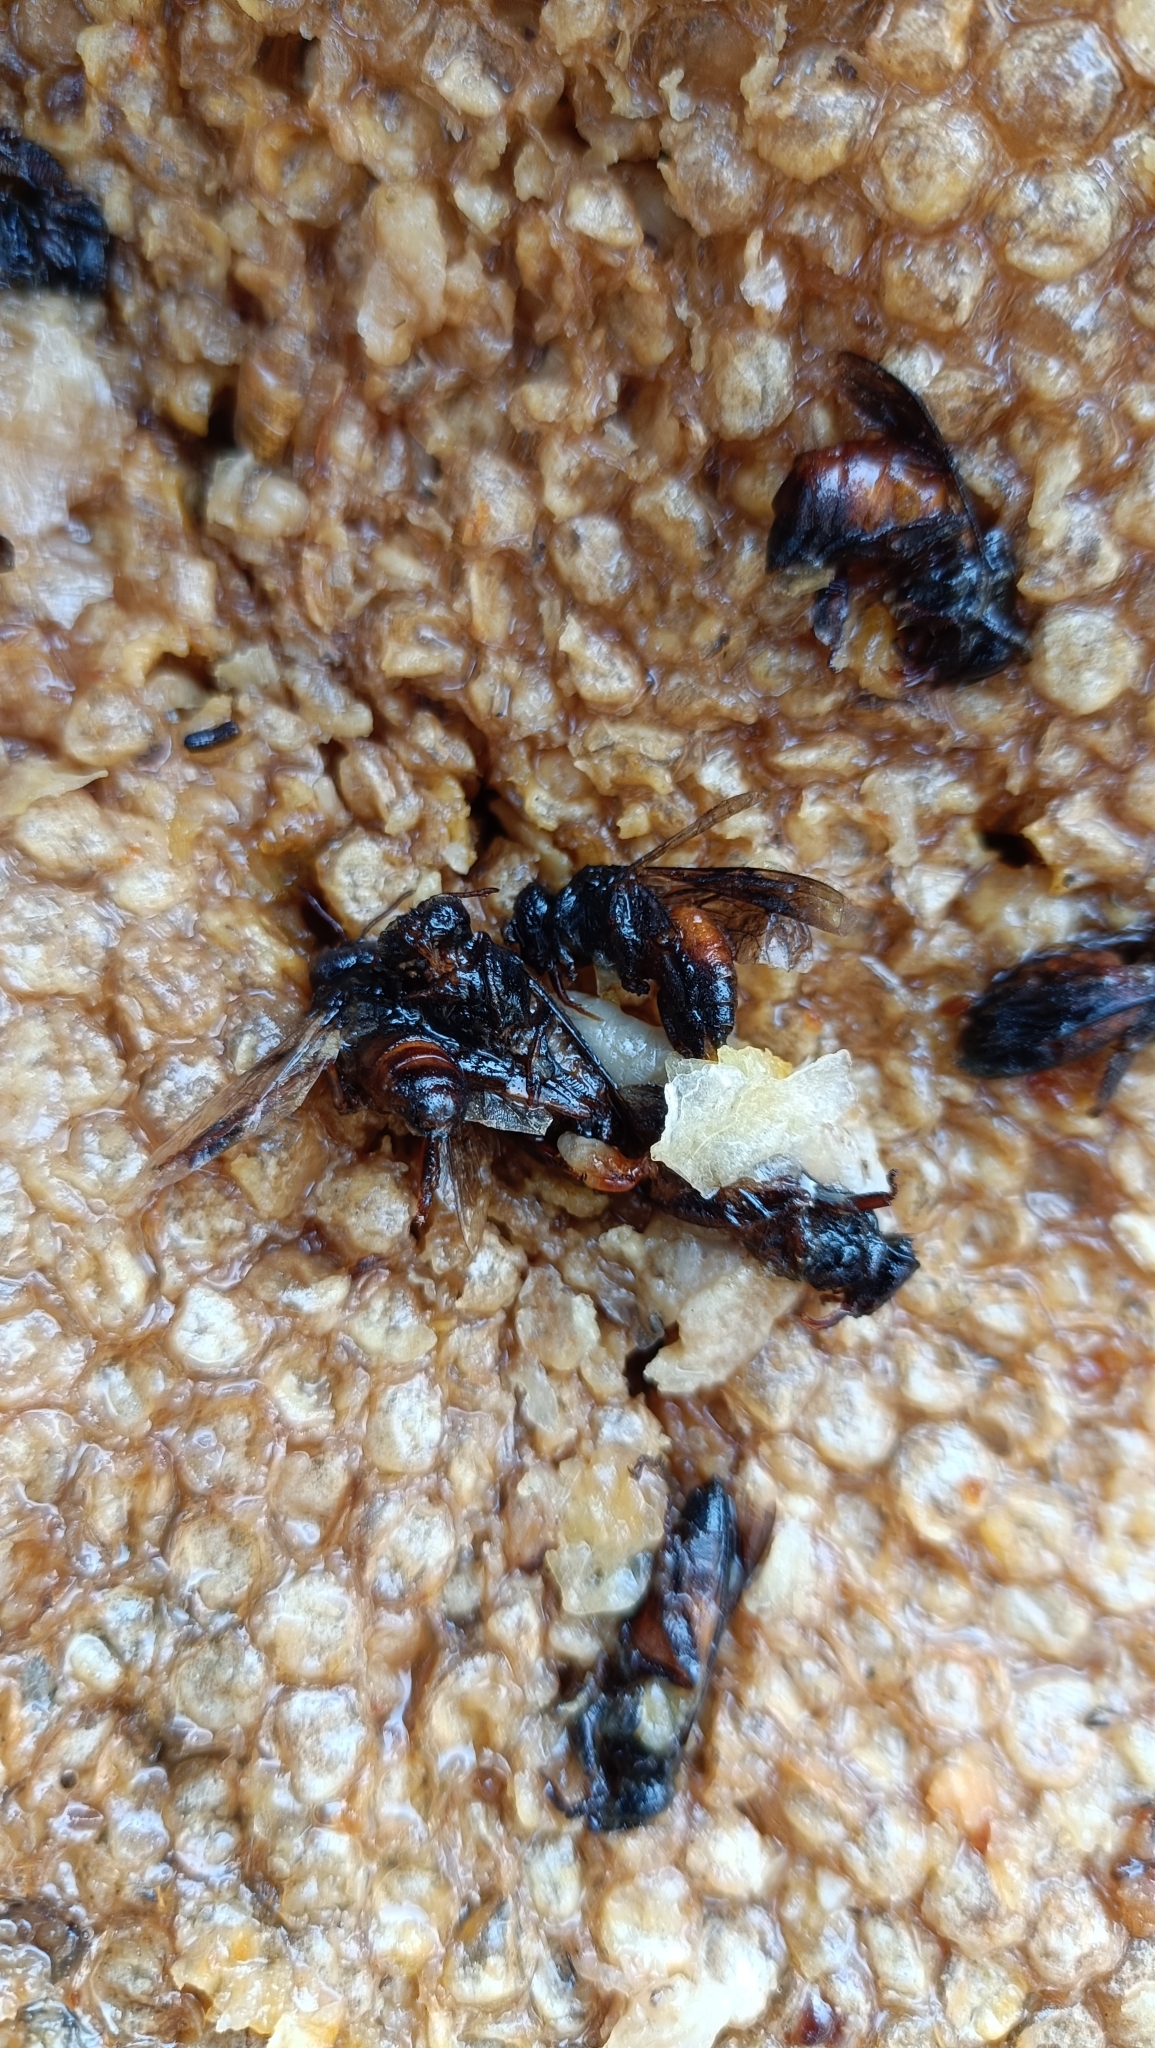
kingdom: Animalia
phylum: Arthropoda
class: Insecta
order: Hymenoptera
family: Apidae
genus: Apis
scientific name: Apis dorsata
